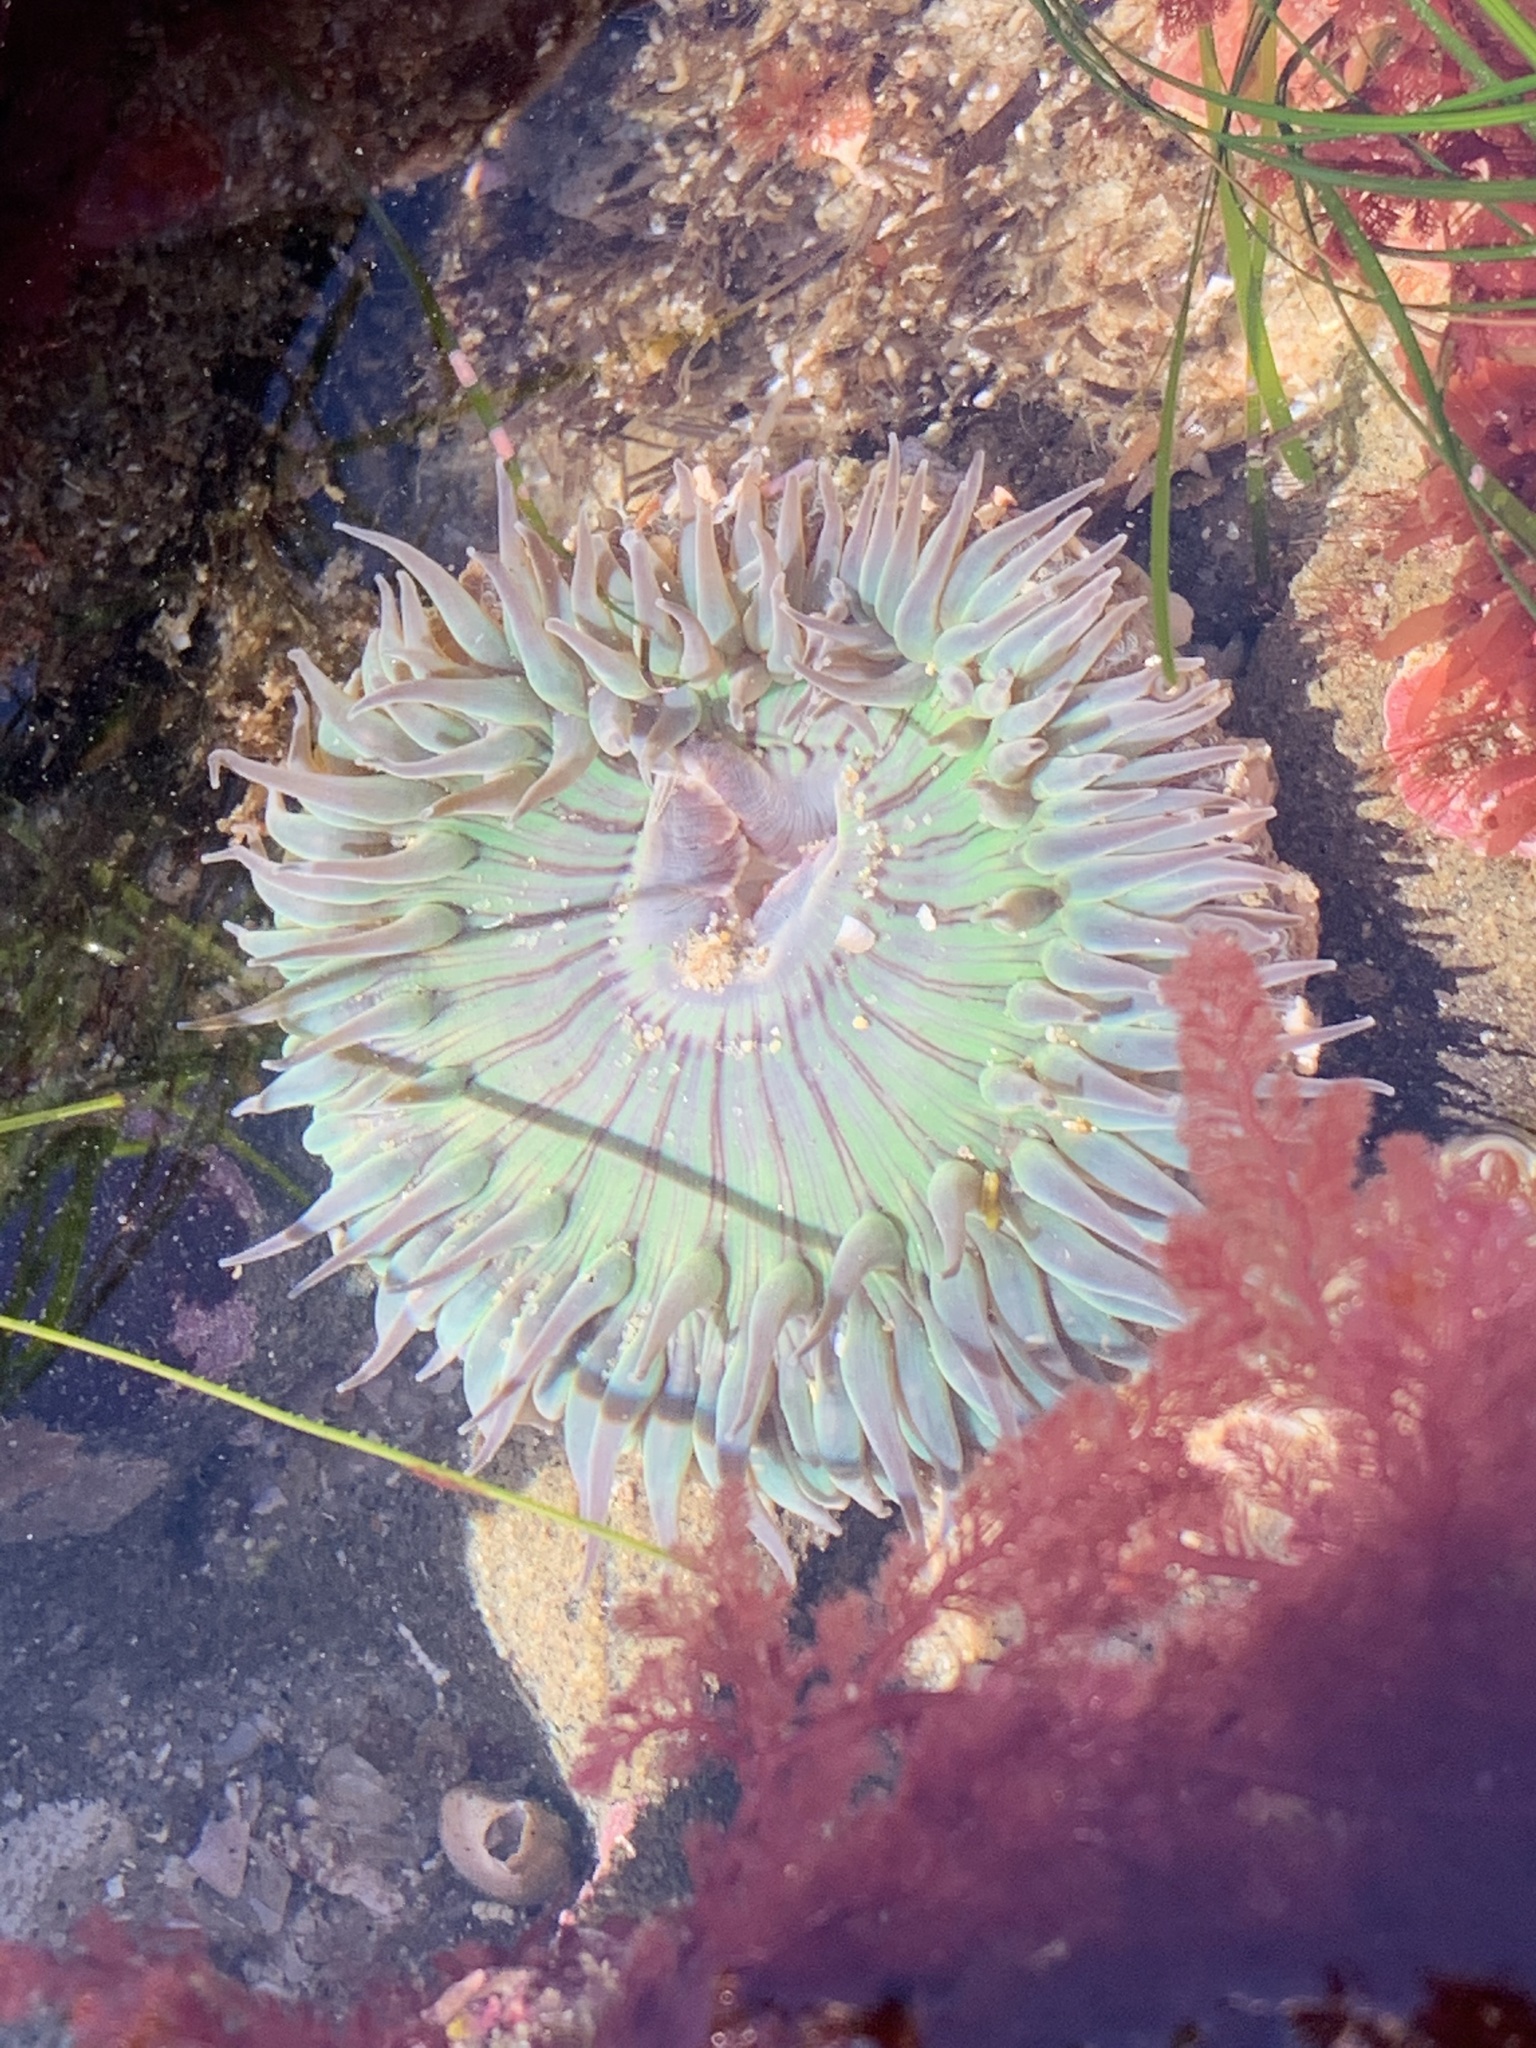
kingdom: Animalia
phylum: Cnidaria
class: Anthozoa
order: Actiniaria
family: Actiniidae
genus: Anthopleura
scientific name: Anthopleura sola
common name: Sun anemone
